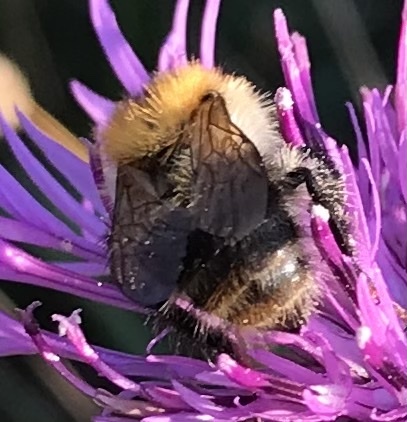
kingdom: Animalia
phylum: Arthropoda
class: Insecta
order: Hymenoptera
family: Apidae
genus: Bombus
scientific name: Bombus pascuorum
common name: Common carder bee
